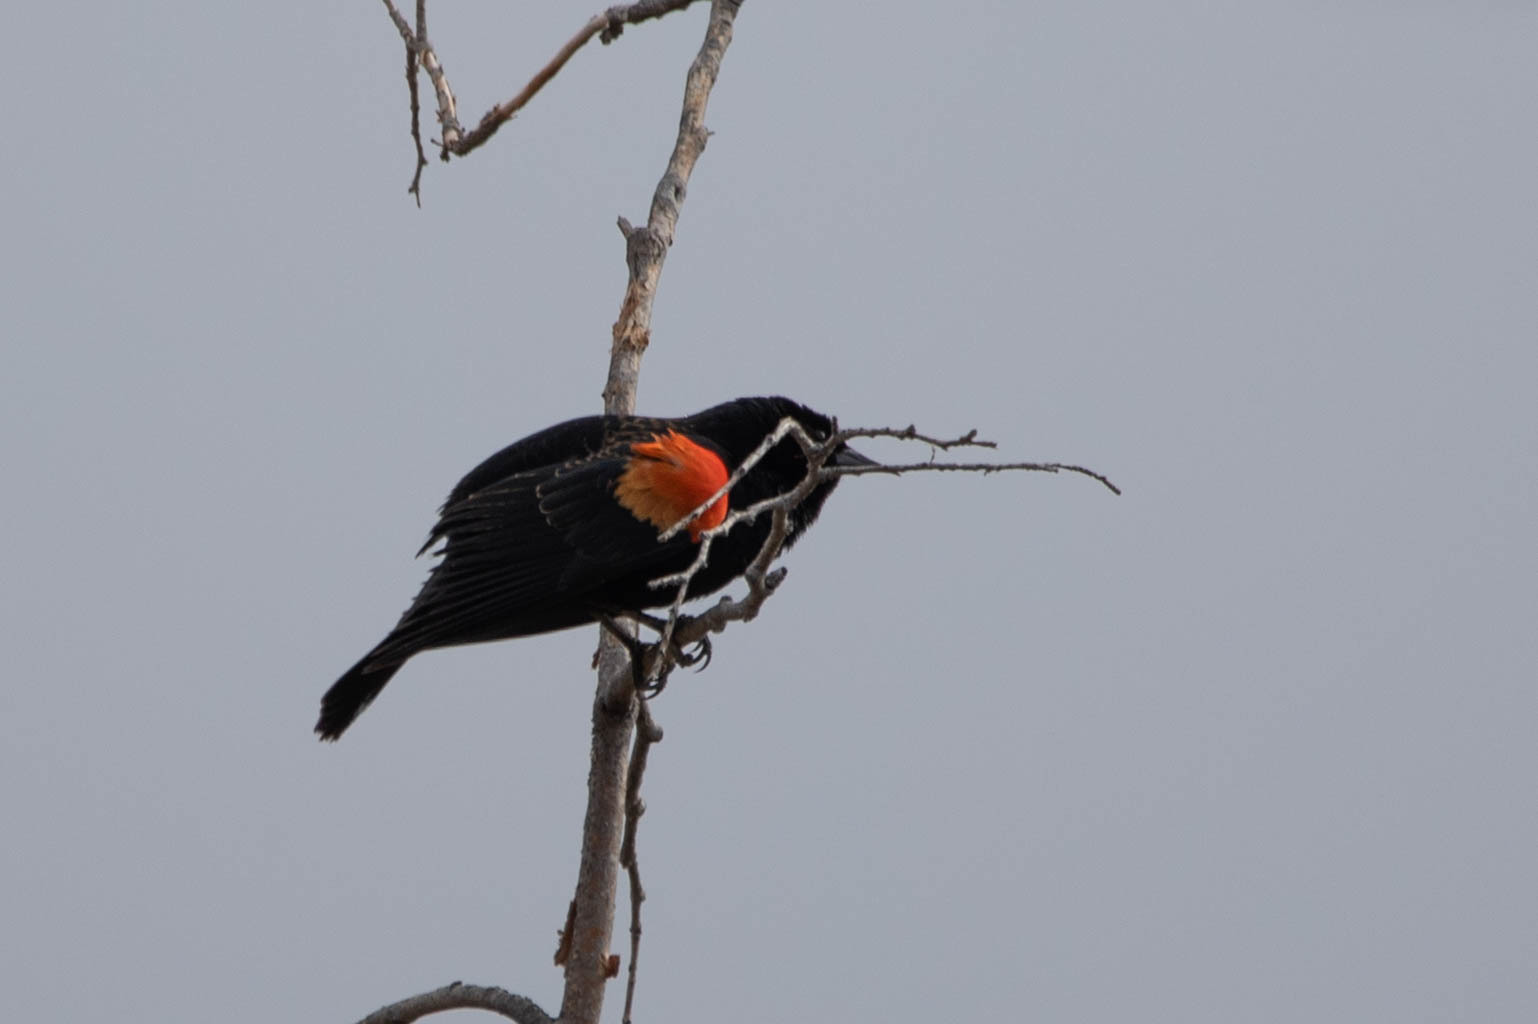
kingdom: Animalia
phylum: Chordata
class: Aves
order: Passeriformes
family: Icteridae
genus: Agelaius
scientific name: Agelaius phoeniceus
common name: Red-winged blackbird
